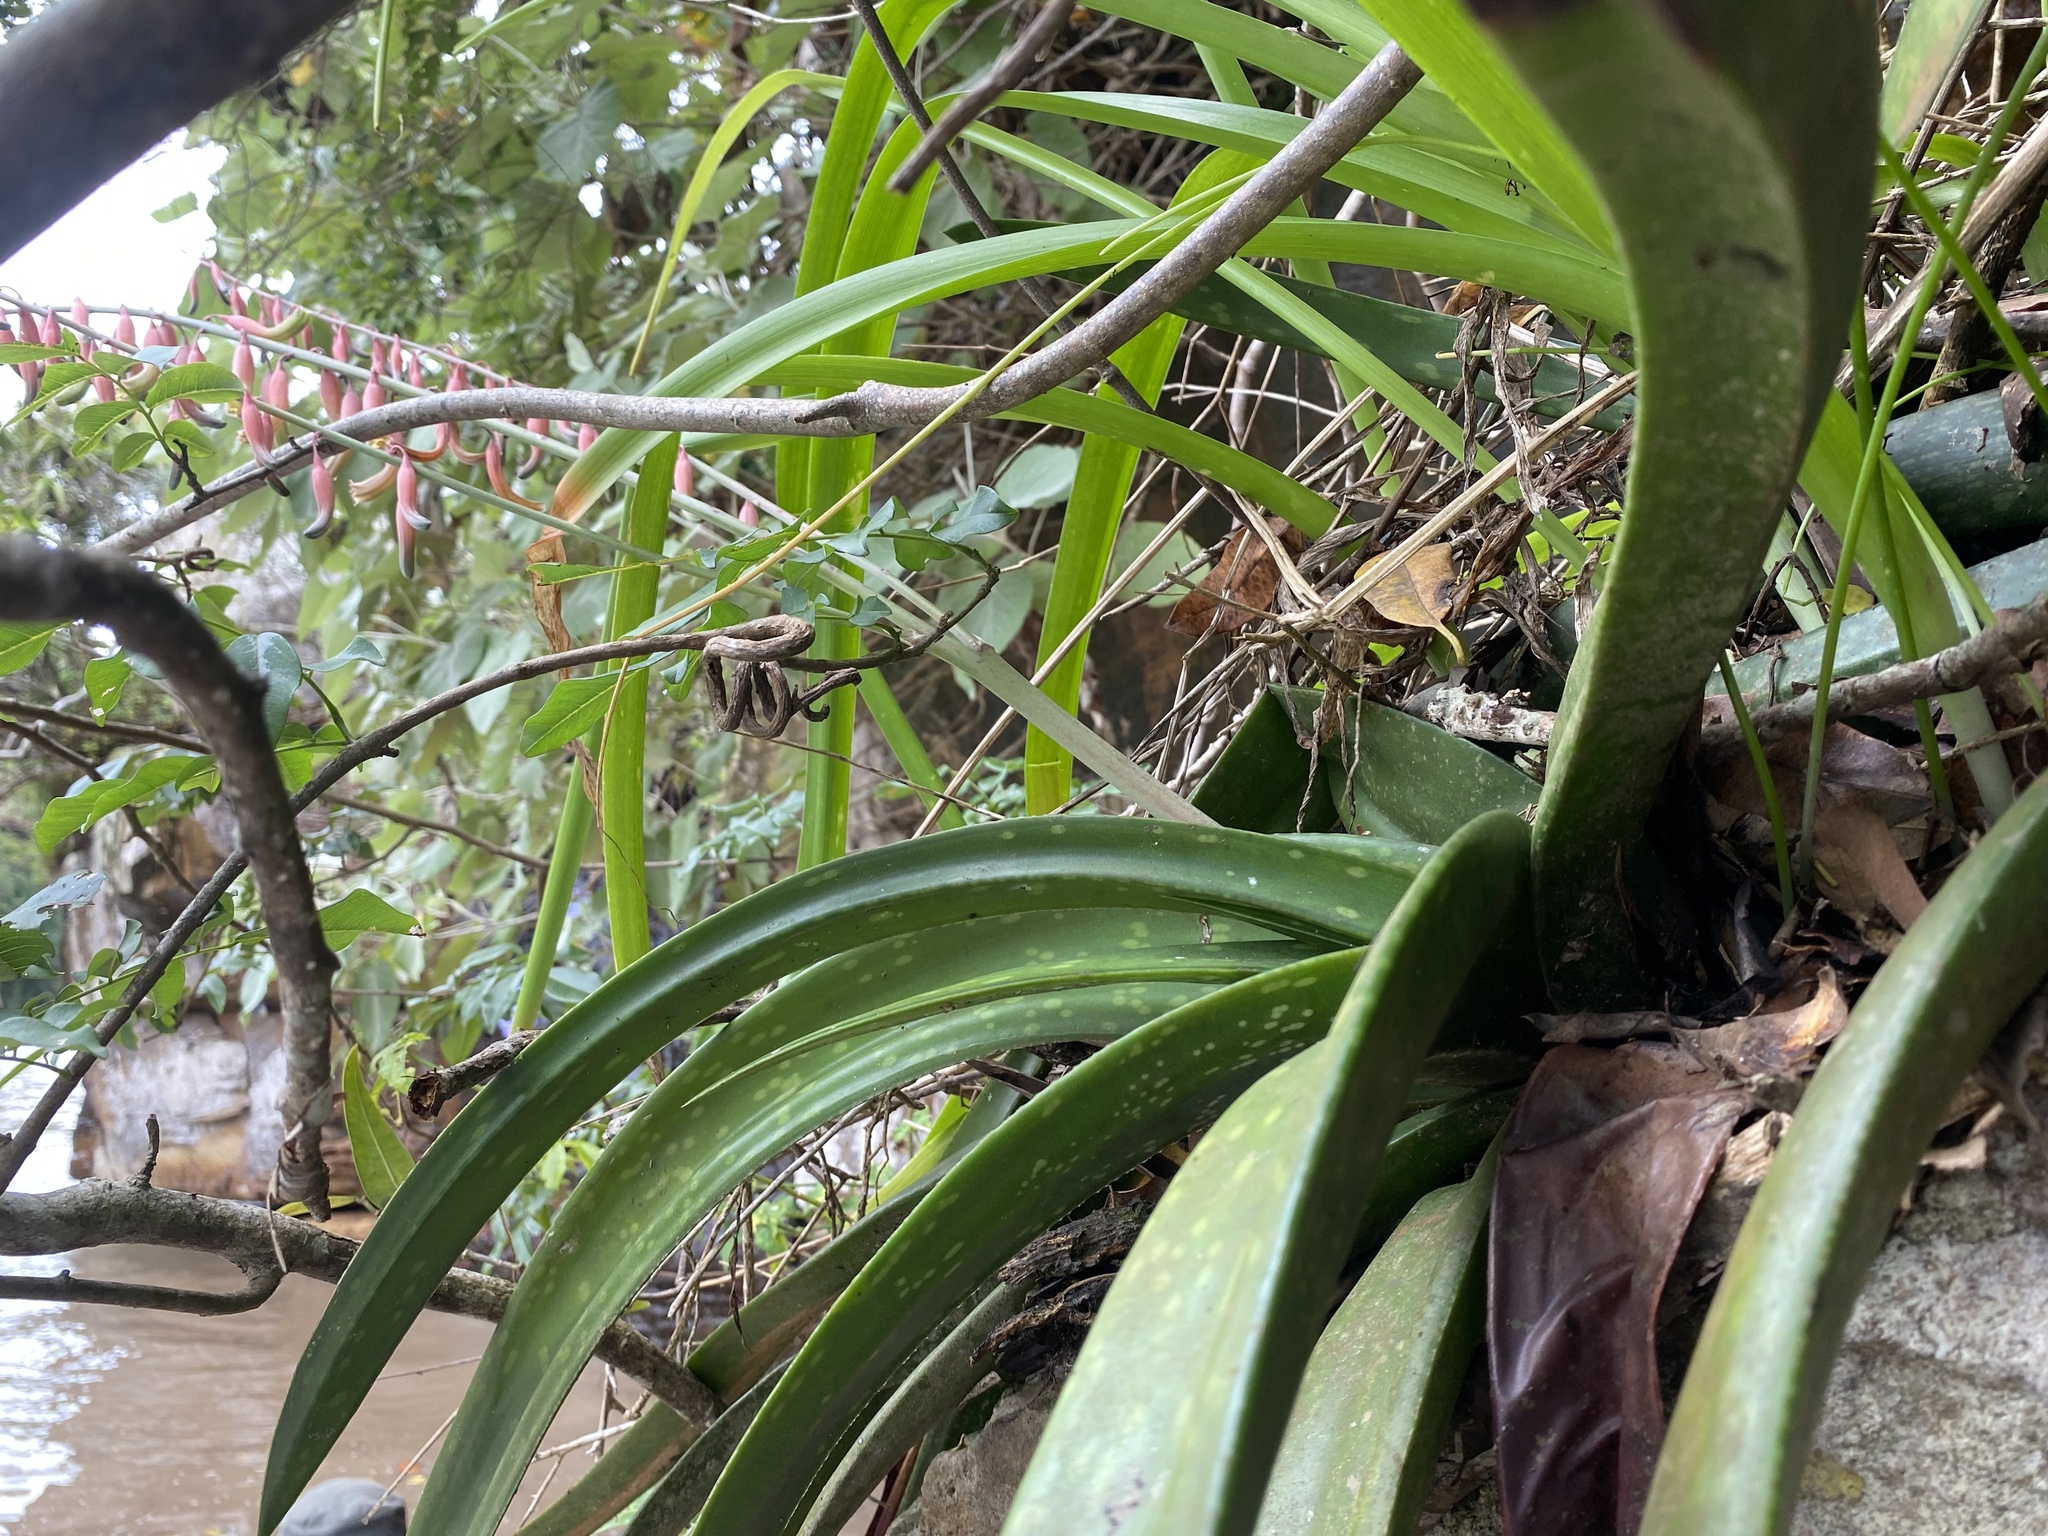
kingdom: Plantae
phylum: Tracheophyta
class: Liliopsida
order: Asparagales
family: Asphodelaceae
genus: Gasteria
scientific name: Gasteria loedolffiae
